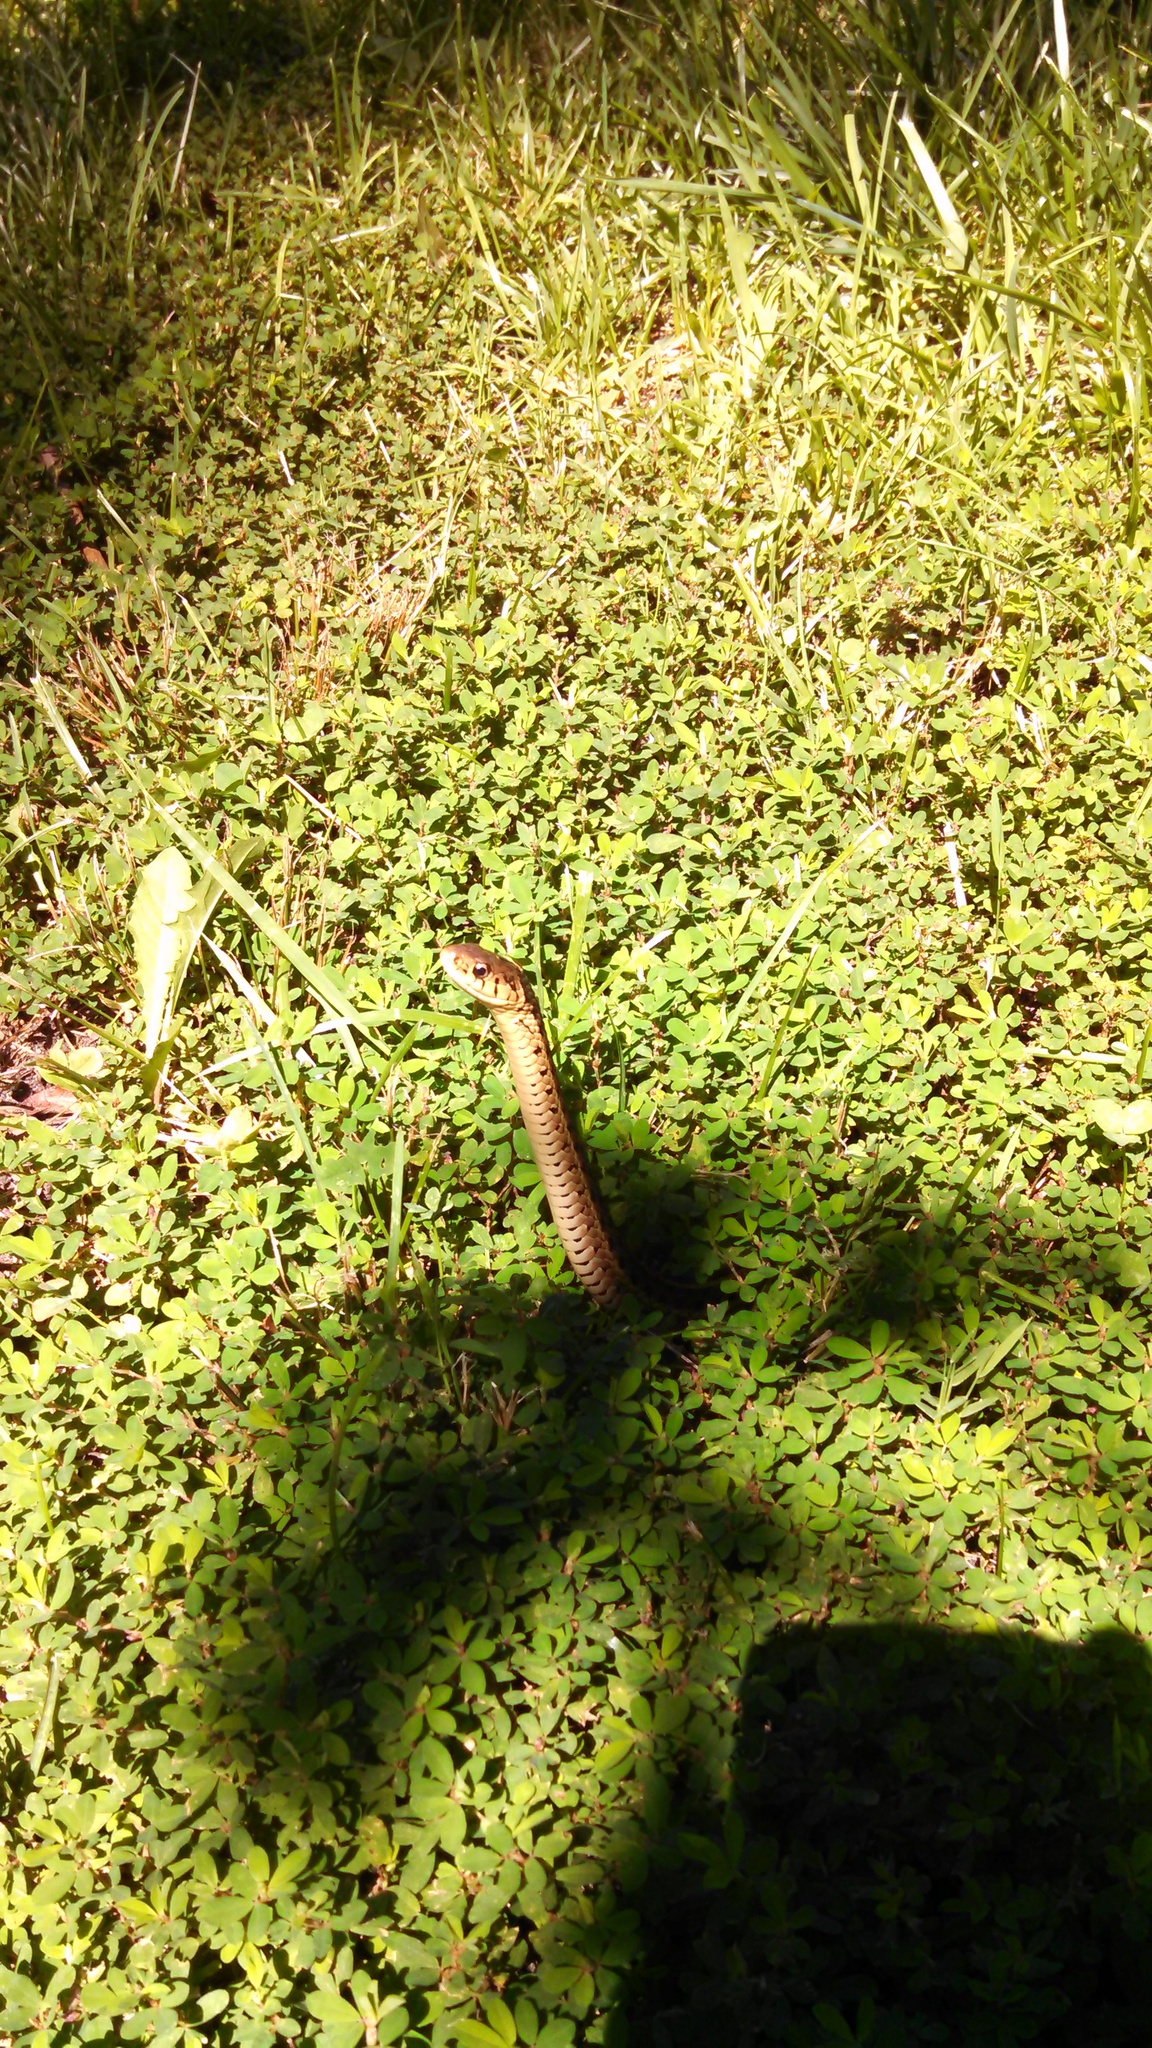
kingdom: Animalia
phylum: Chordata
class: Squamata
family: Colubridae
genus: Thamnophis
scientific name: Thamnophis sirtalis
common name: Common garter snake
